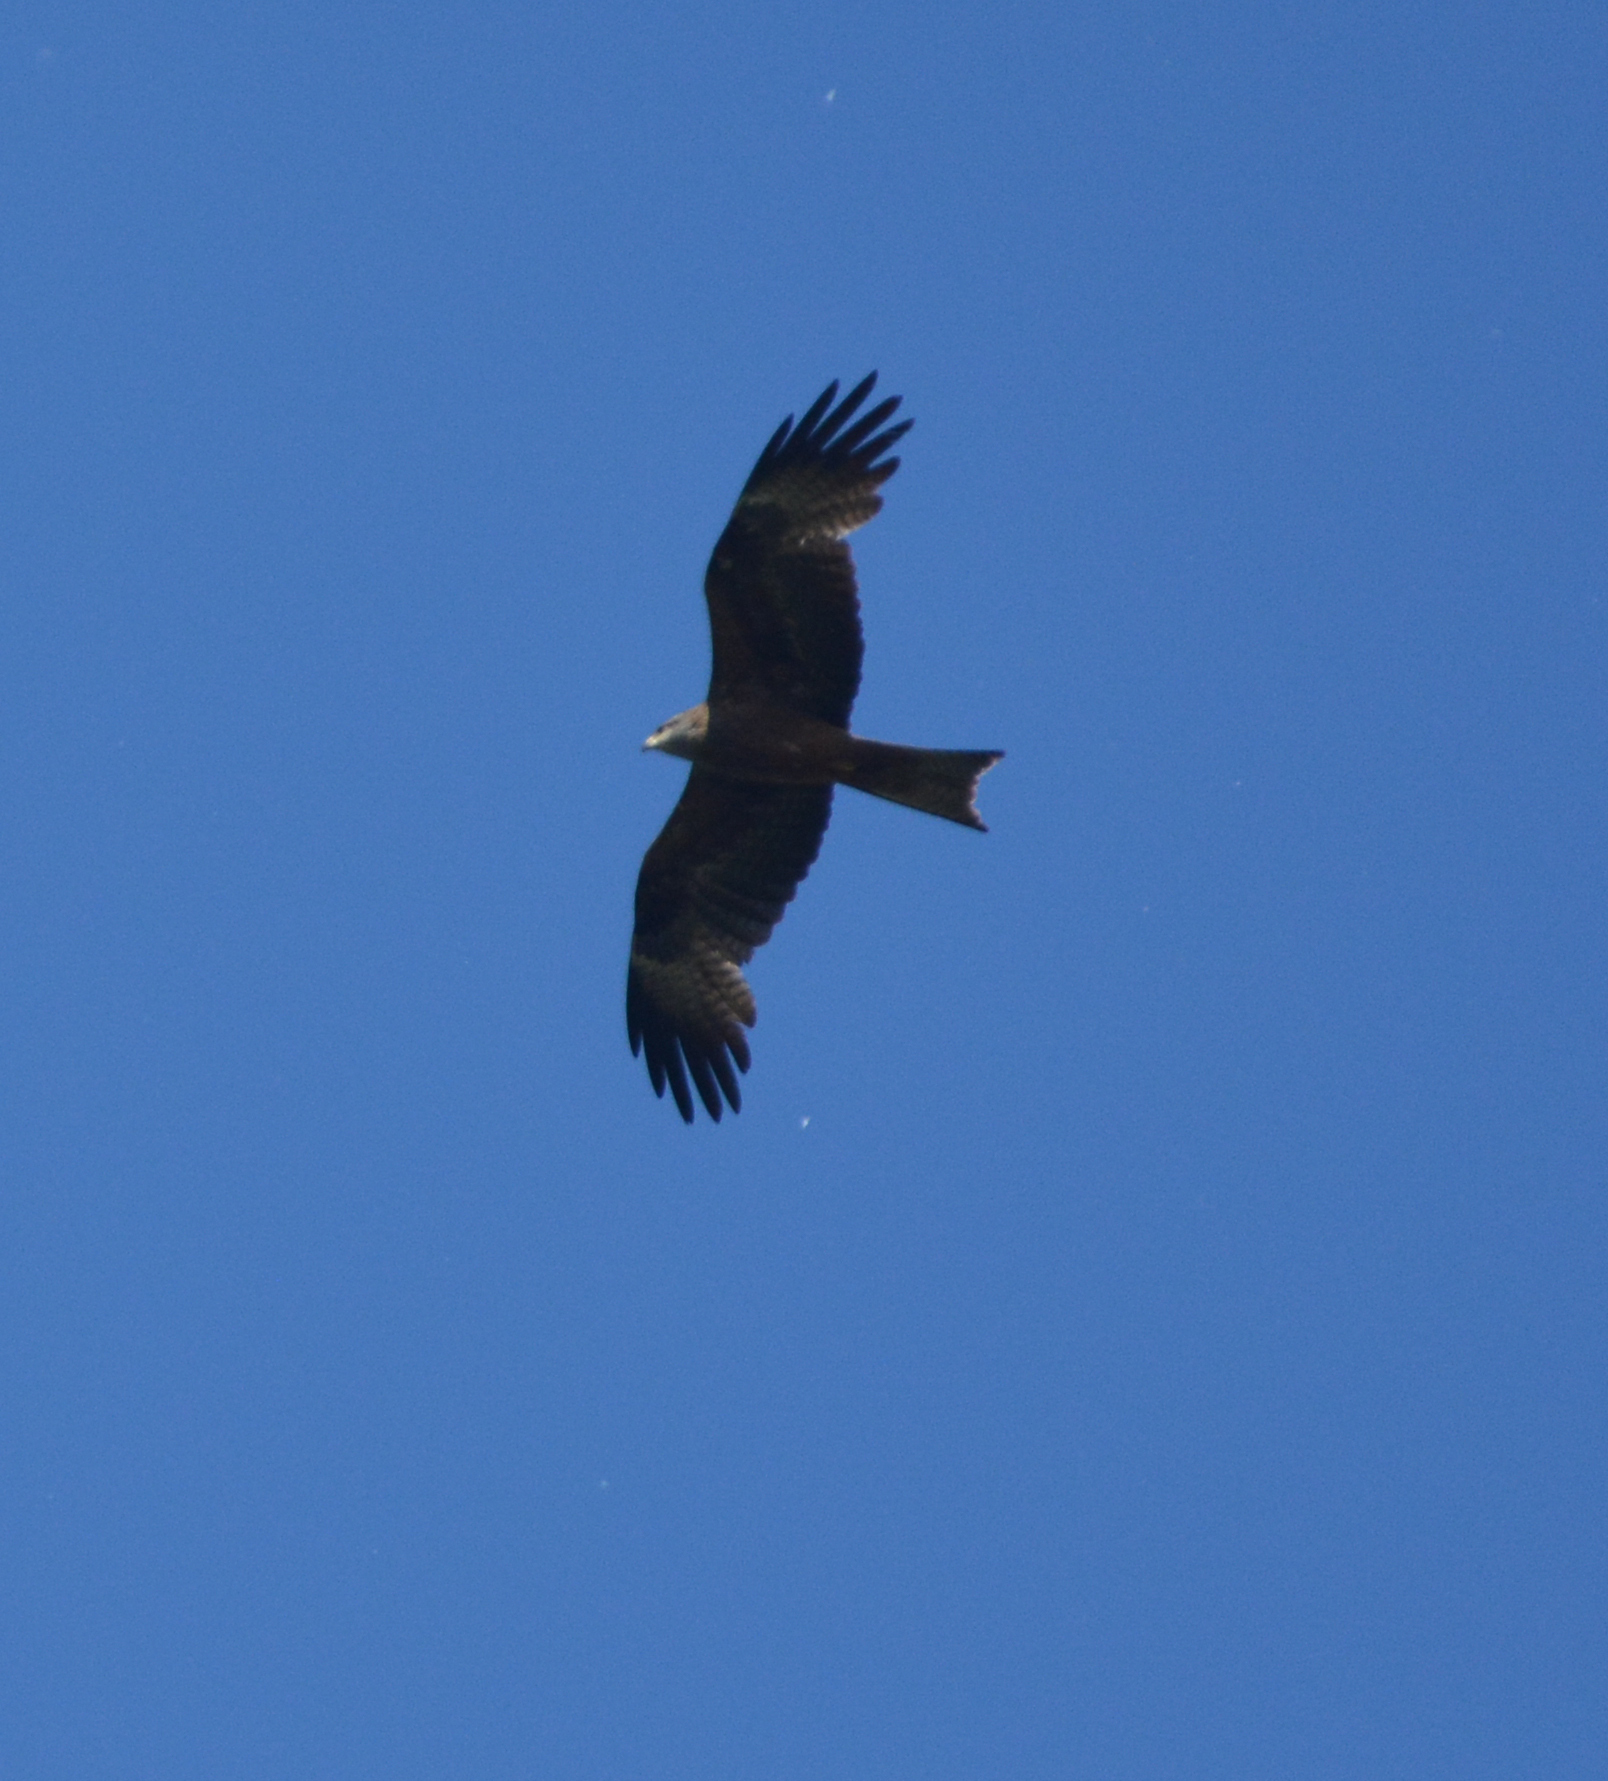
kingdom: Animalia
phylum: Chordata
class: Aves
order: Accipitriformes
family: Accipitridae
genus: Milvus
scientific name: Milvus migrans
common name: Black kite
